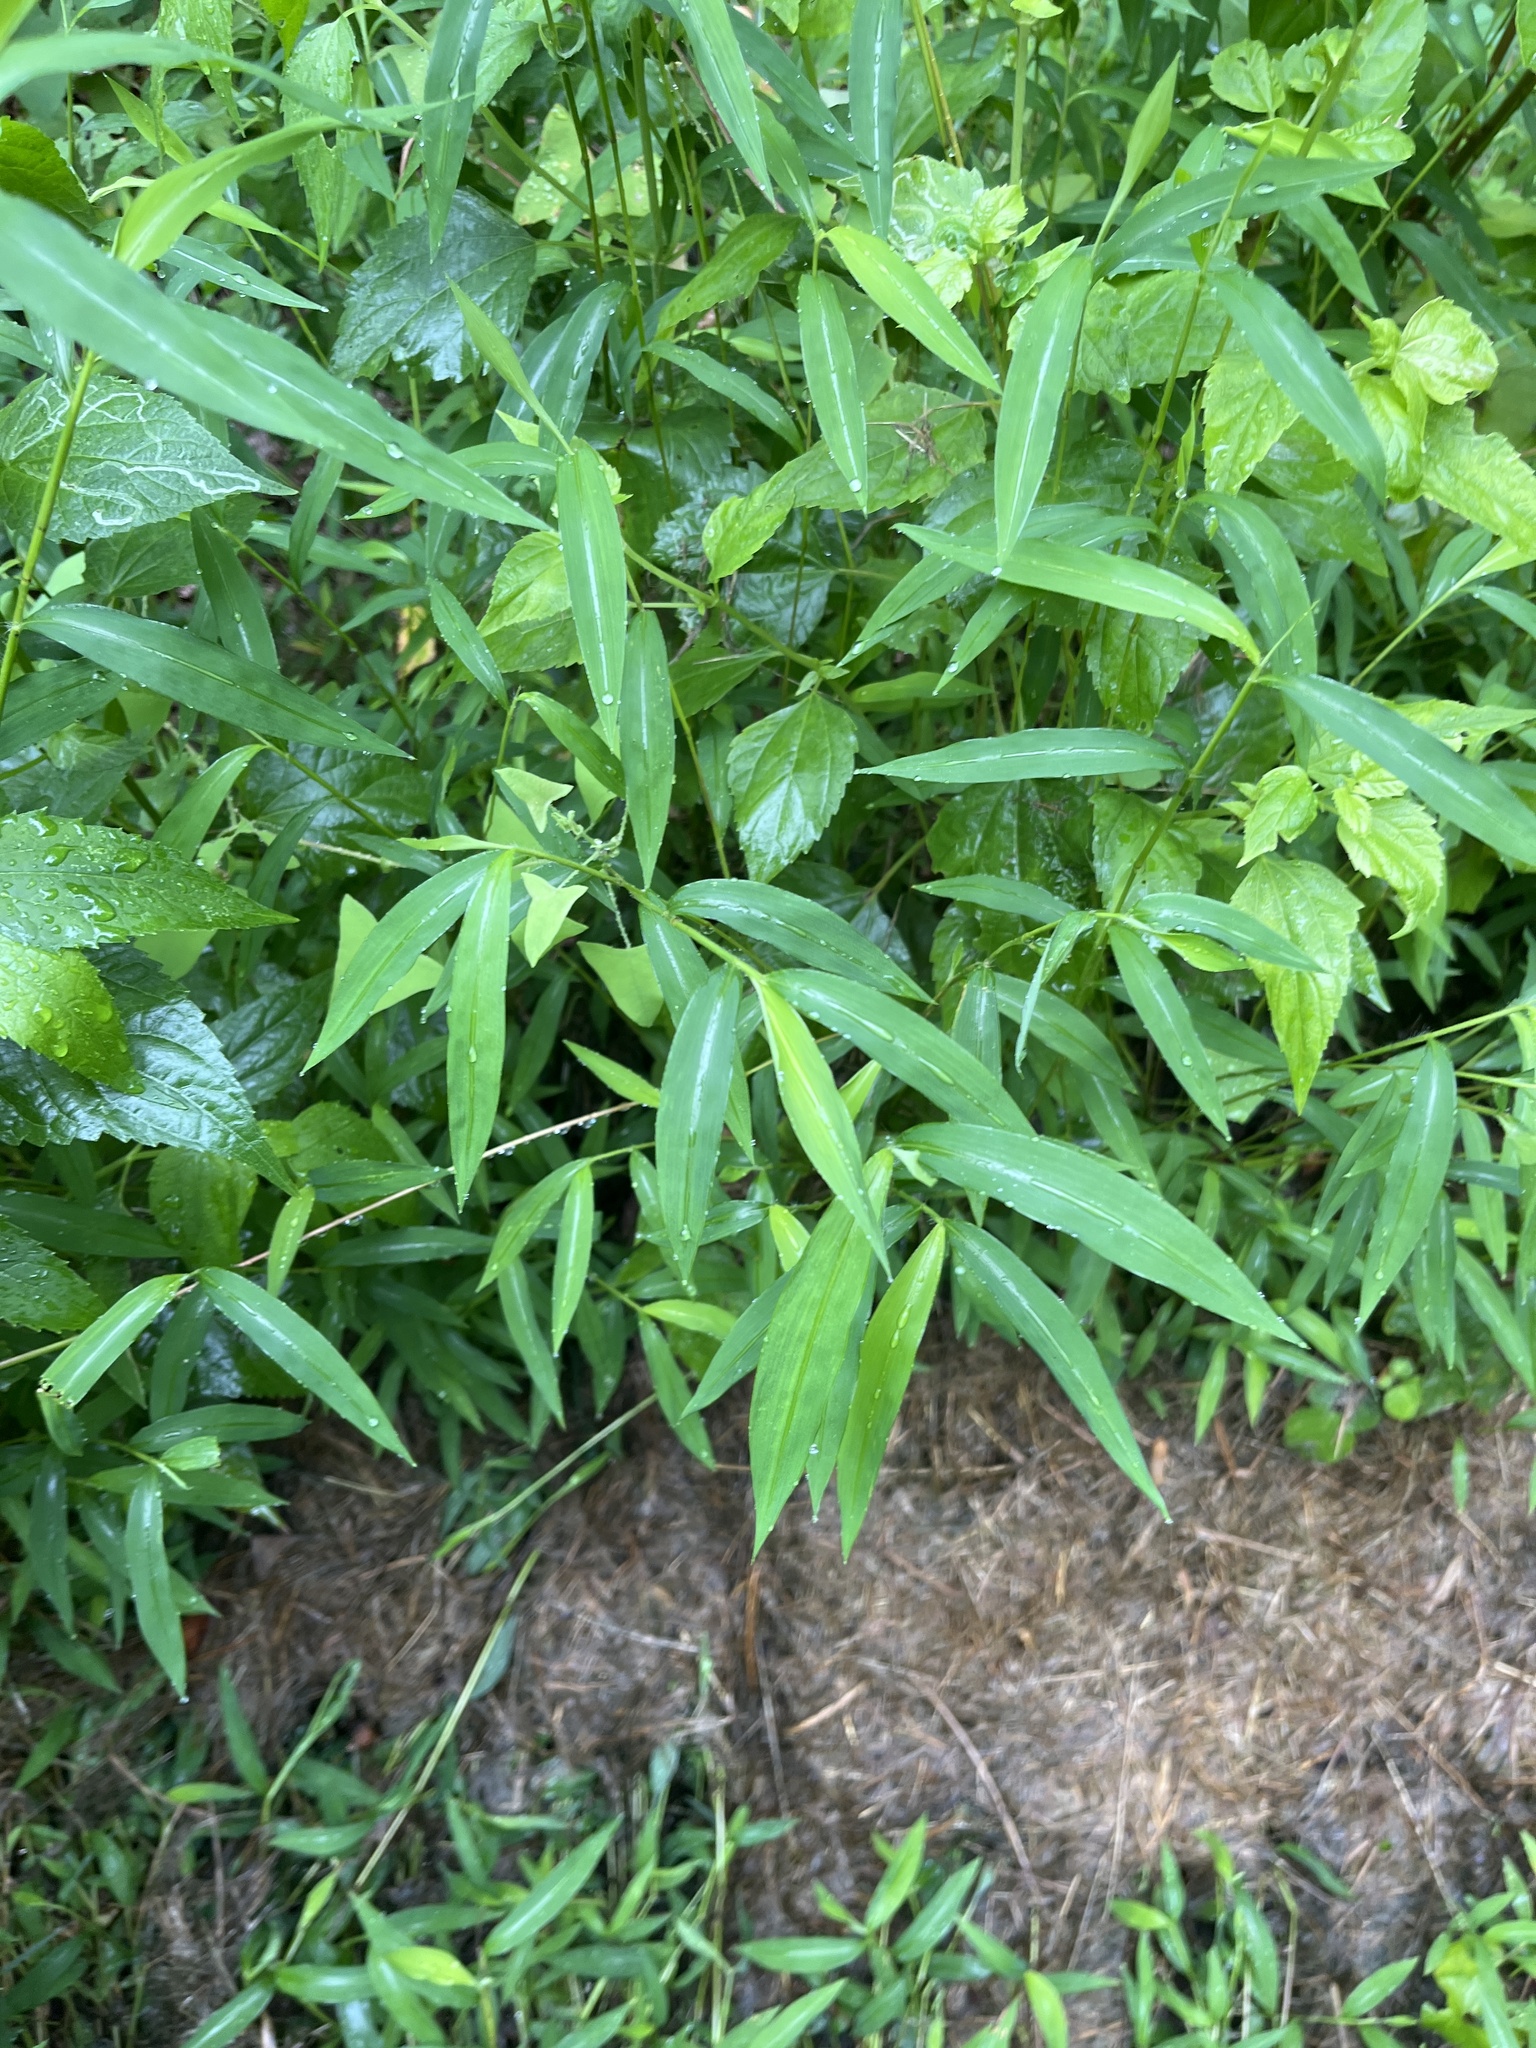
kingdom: Plantae
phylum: Tracheophyta
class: Liliopsida
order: Poales
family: Poaceae
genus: Microstegium
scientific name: Microstegium vimineum
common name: Japanese stiltgrass
